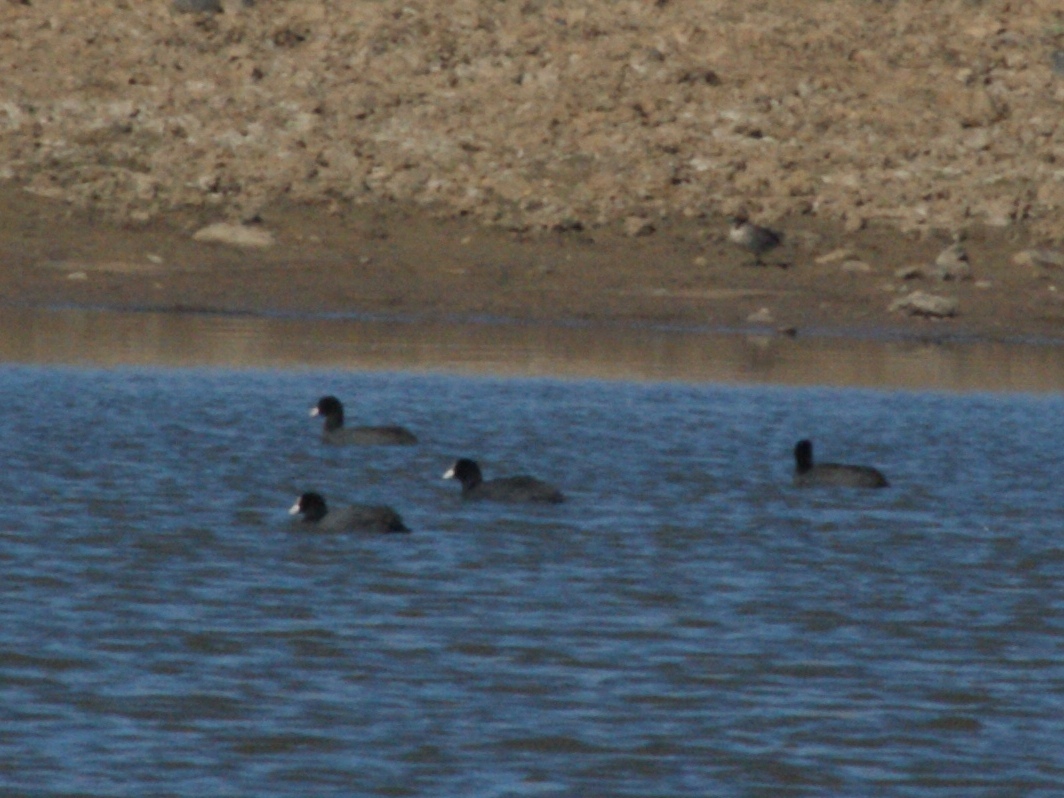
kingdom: Animalia
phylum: Chordata
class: Aves
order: Gruiformes
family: Rallidae
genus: Fulica
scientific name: Fulica atra
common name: Eurasian coot
